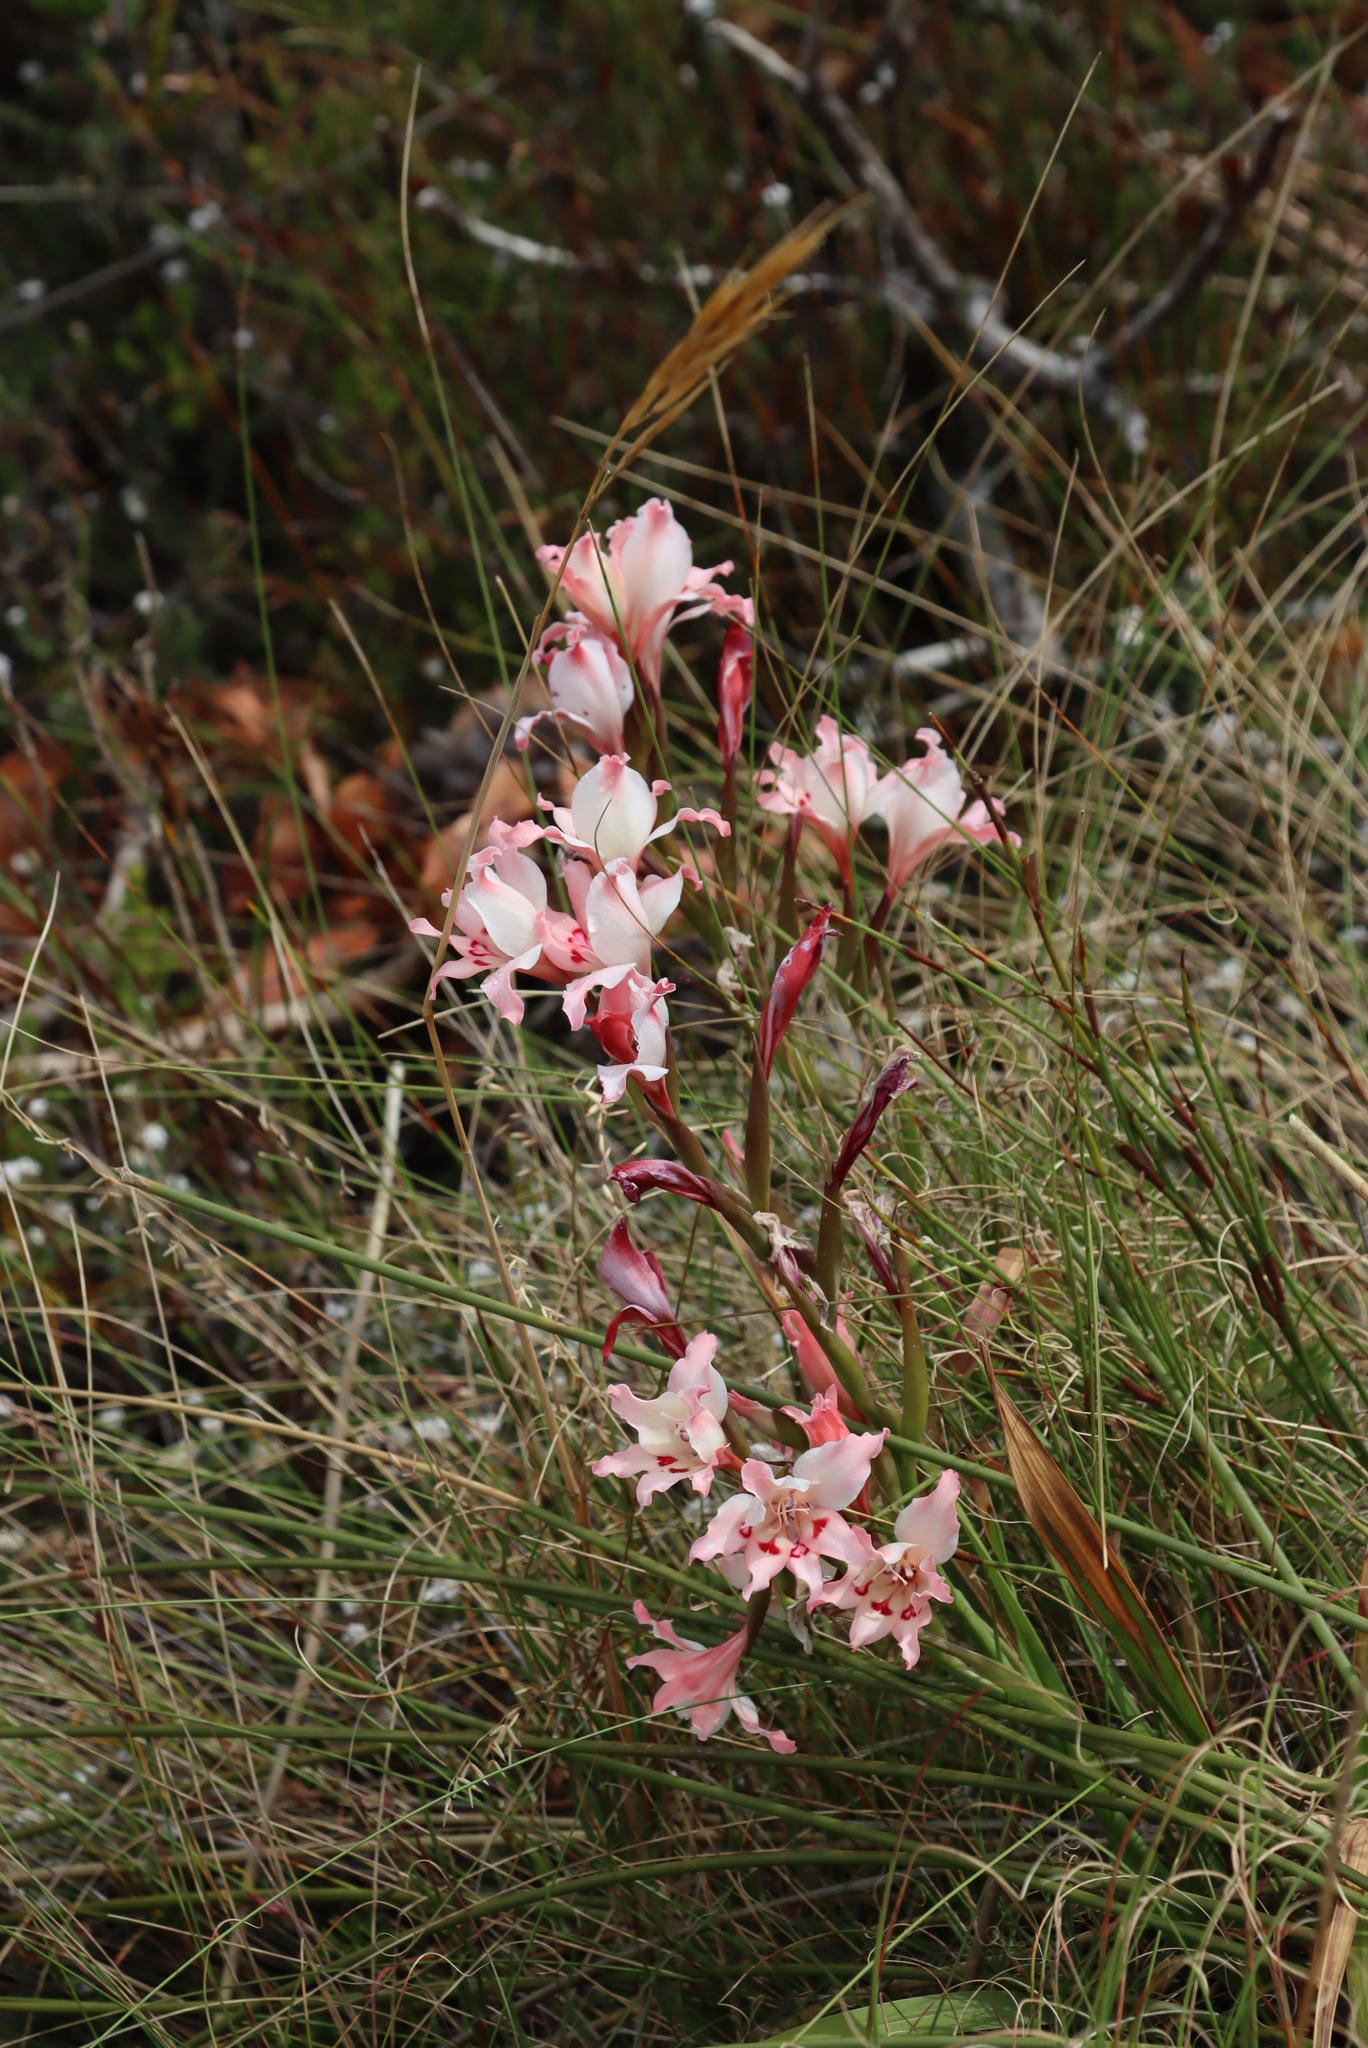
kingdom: Plantae
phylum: Tracheophyta
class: Liliopsida
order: Asparagales
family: Iridaceae
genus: Gladiolus
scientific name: Gladiolus carneus
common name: Painted-lady
